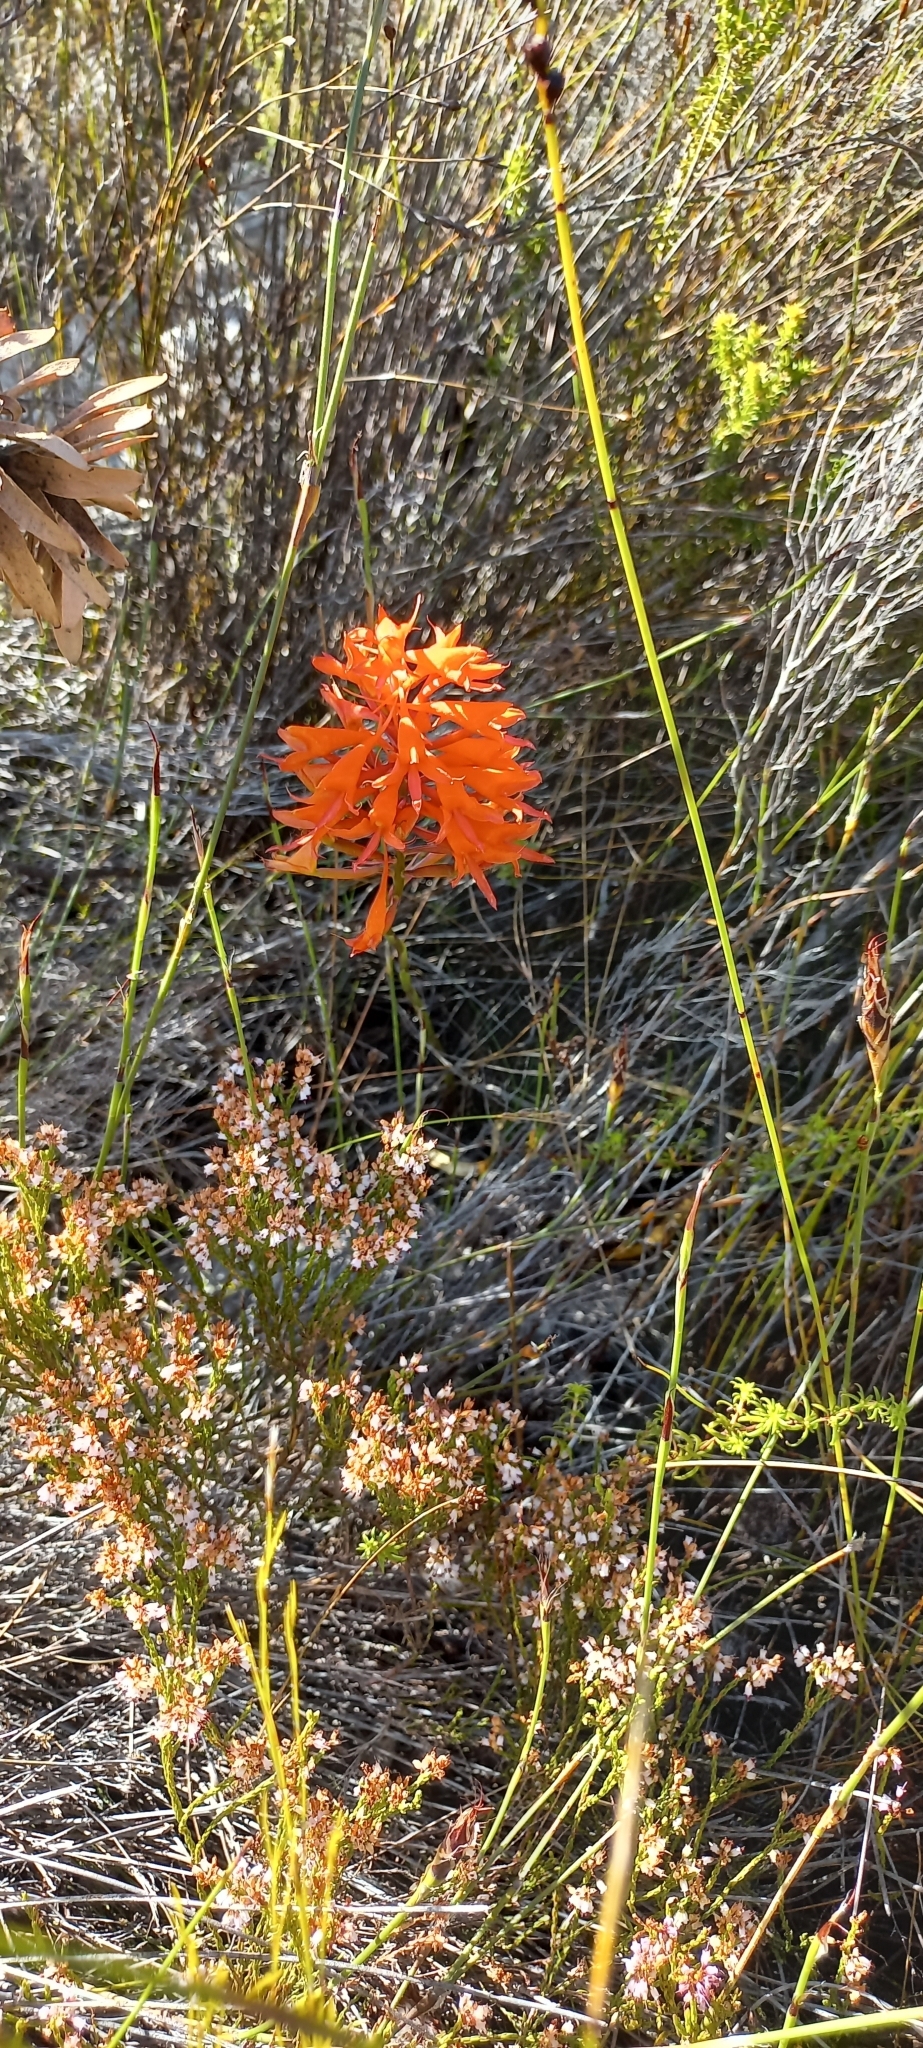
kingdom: Plantae
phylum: Tracheophyta
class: Liliopsida
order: Asparagales
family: Orchidaceae
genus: Disa
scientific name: Disa ferruginea
